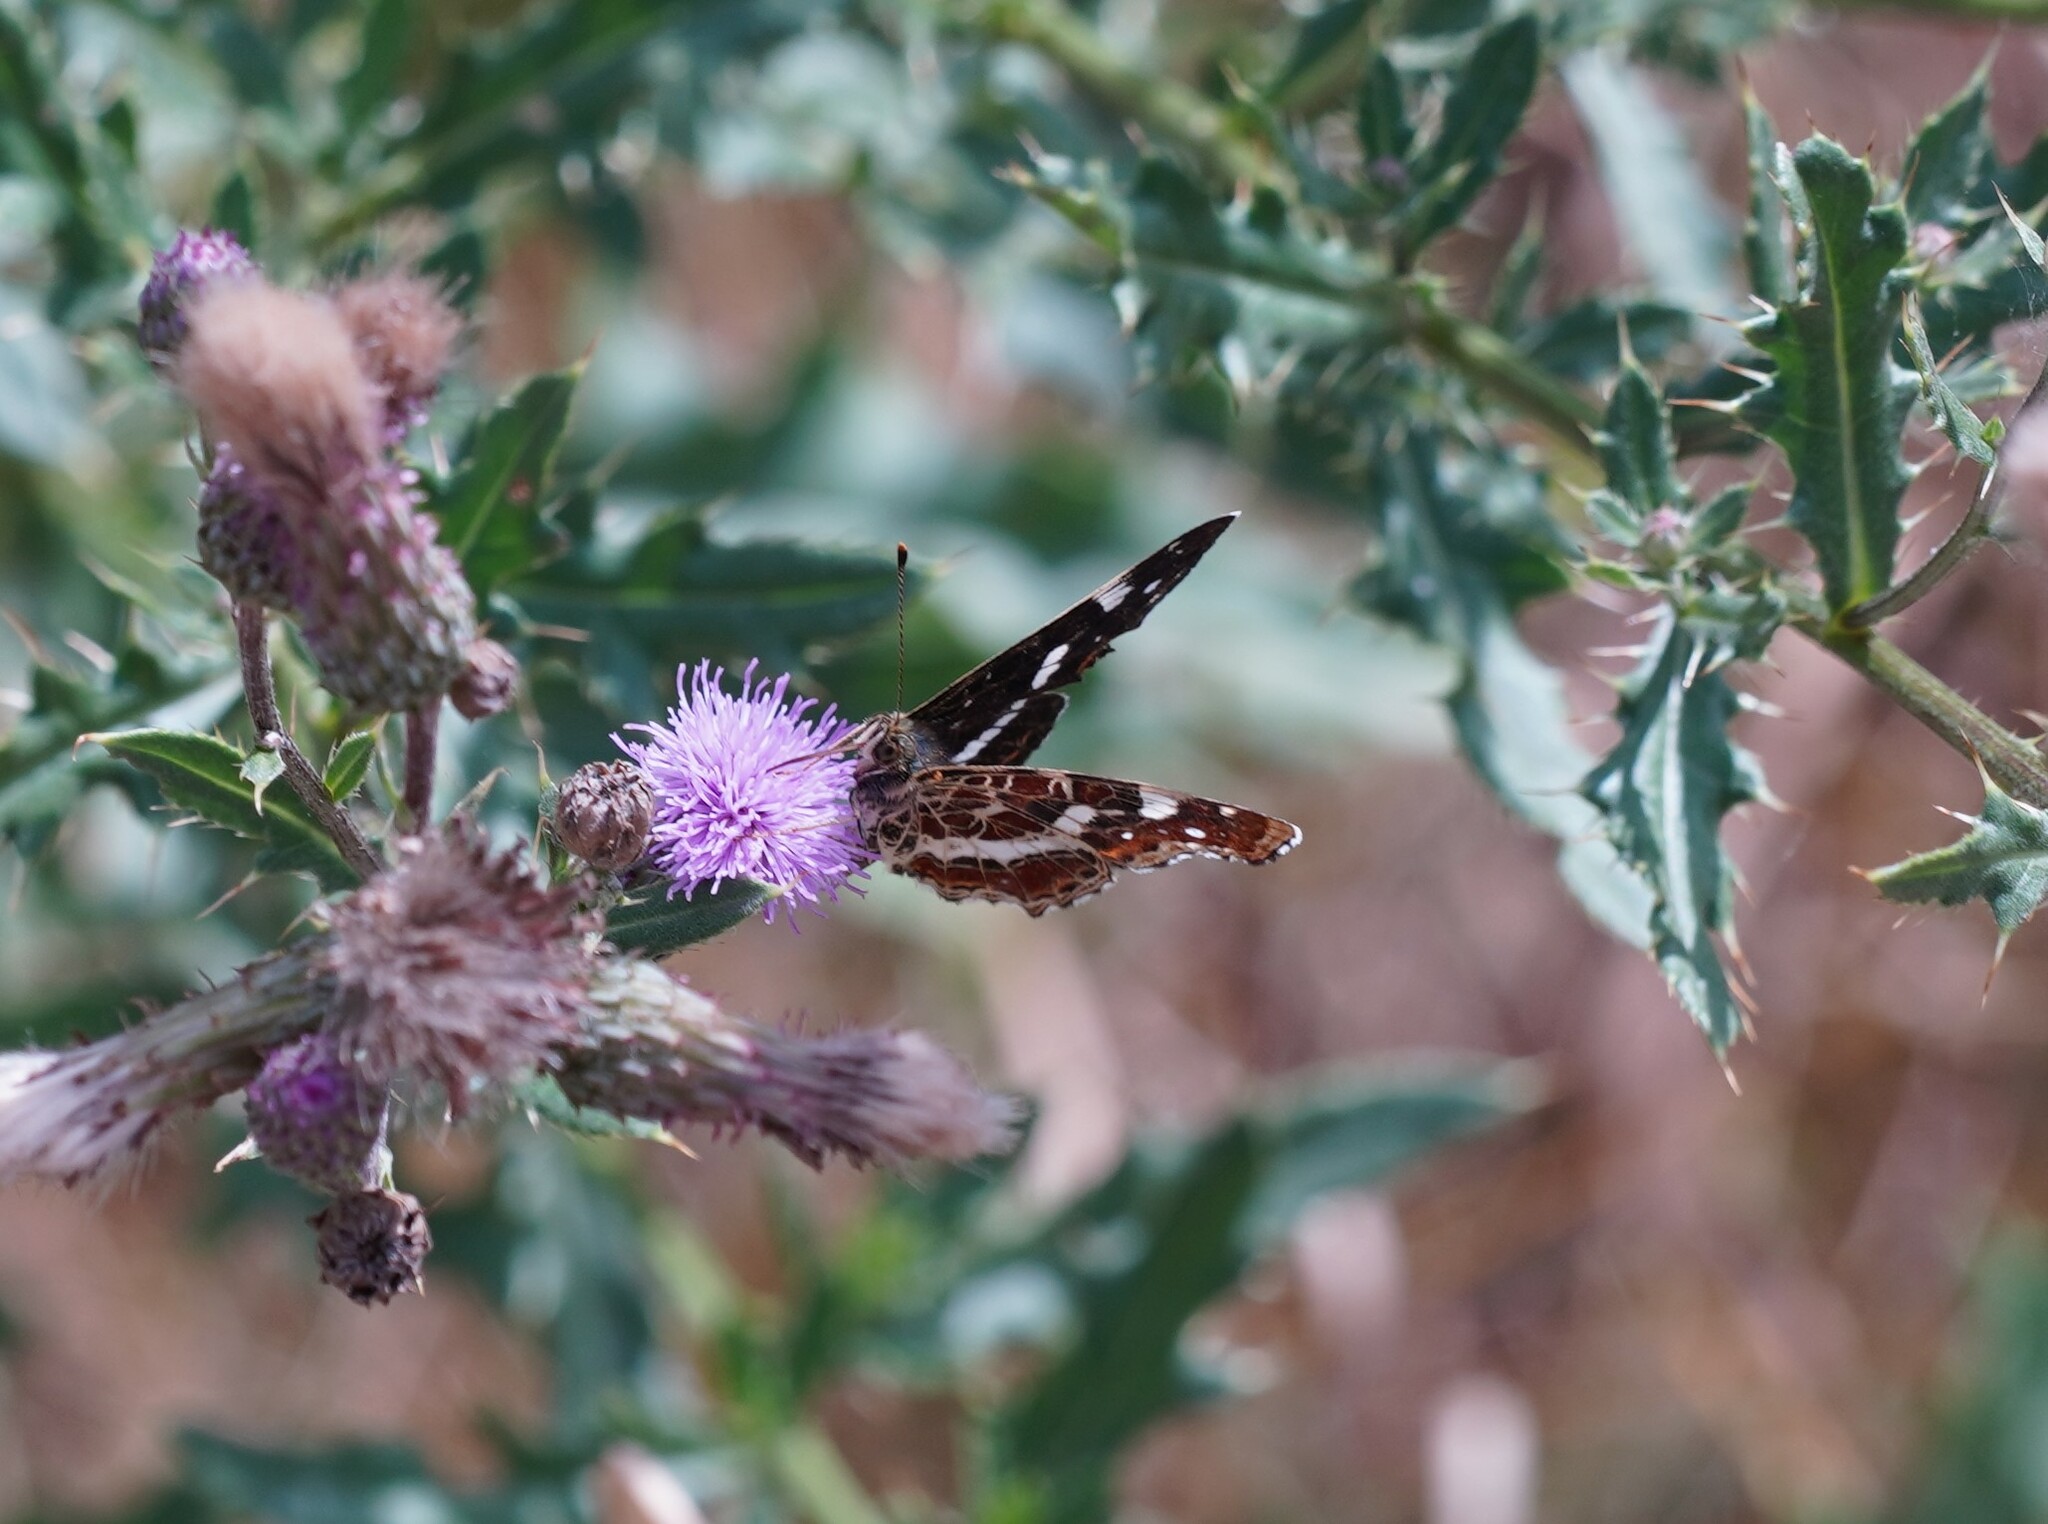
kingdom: Animalia
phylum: Arthropoda
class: Insecta
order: Lepidoptera
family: Nymphalidae
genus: Araschnia
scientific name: Araschnia levana
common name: Map butterfly
